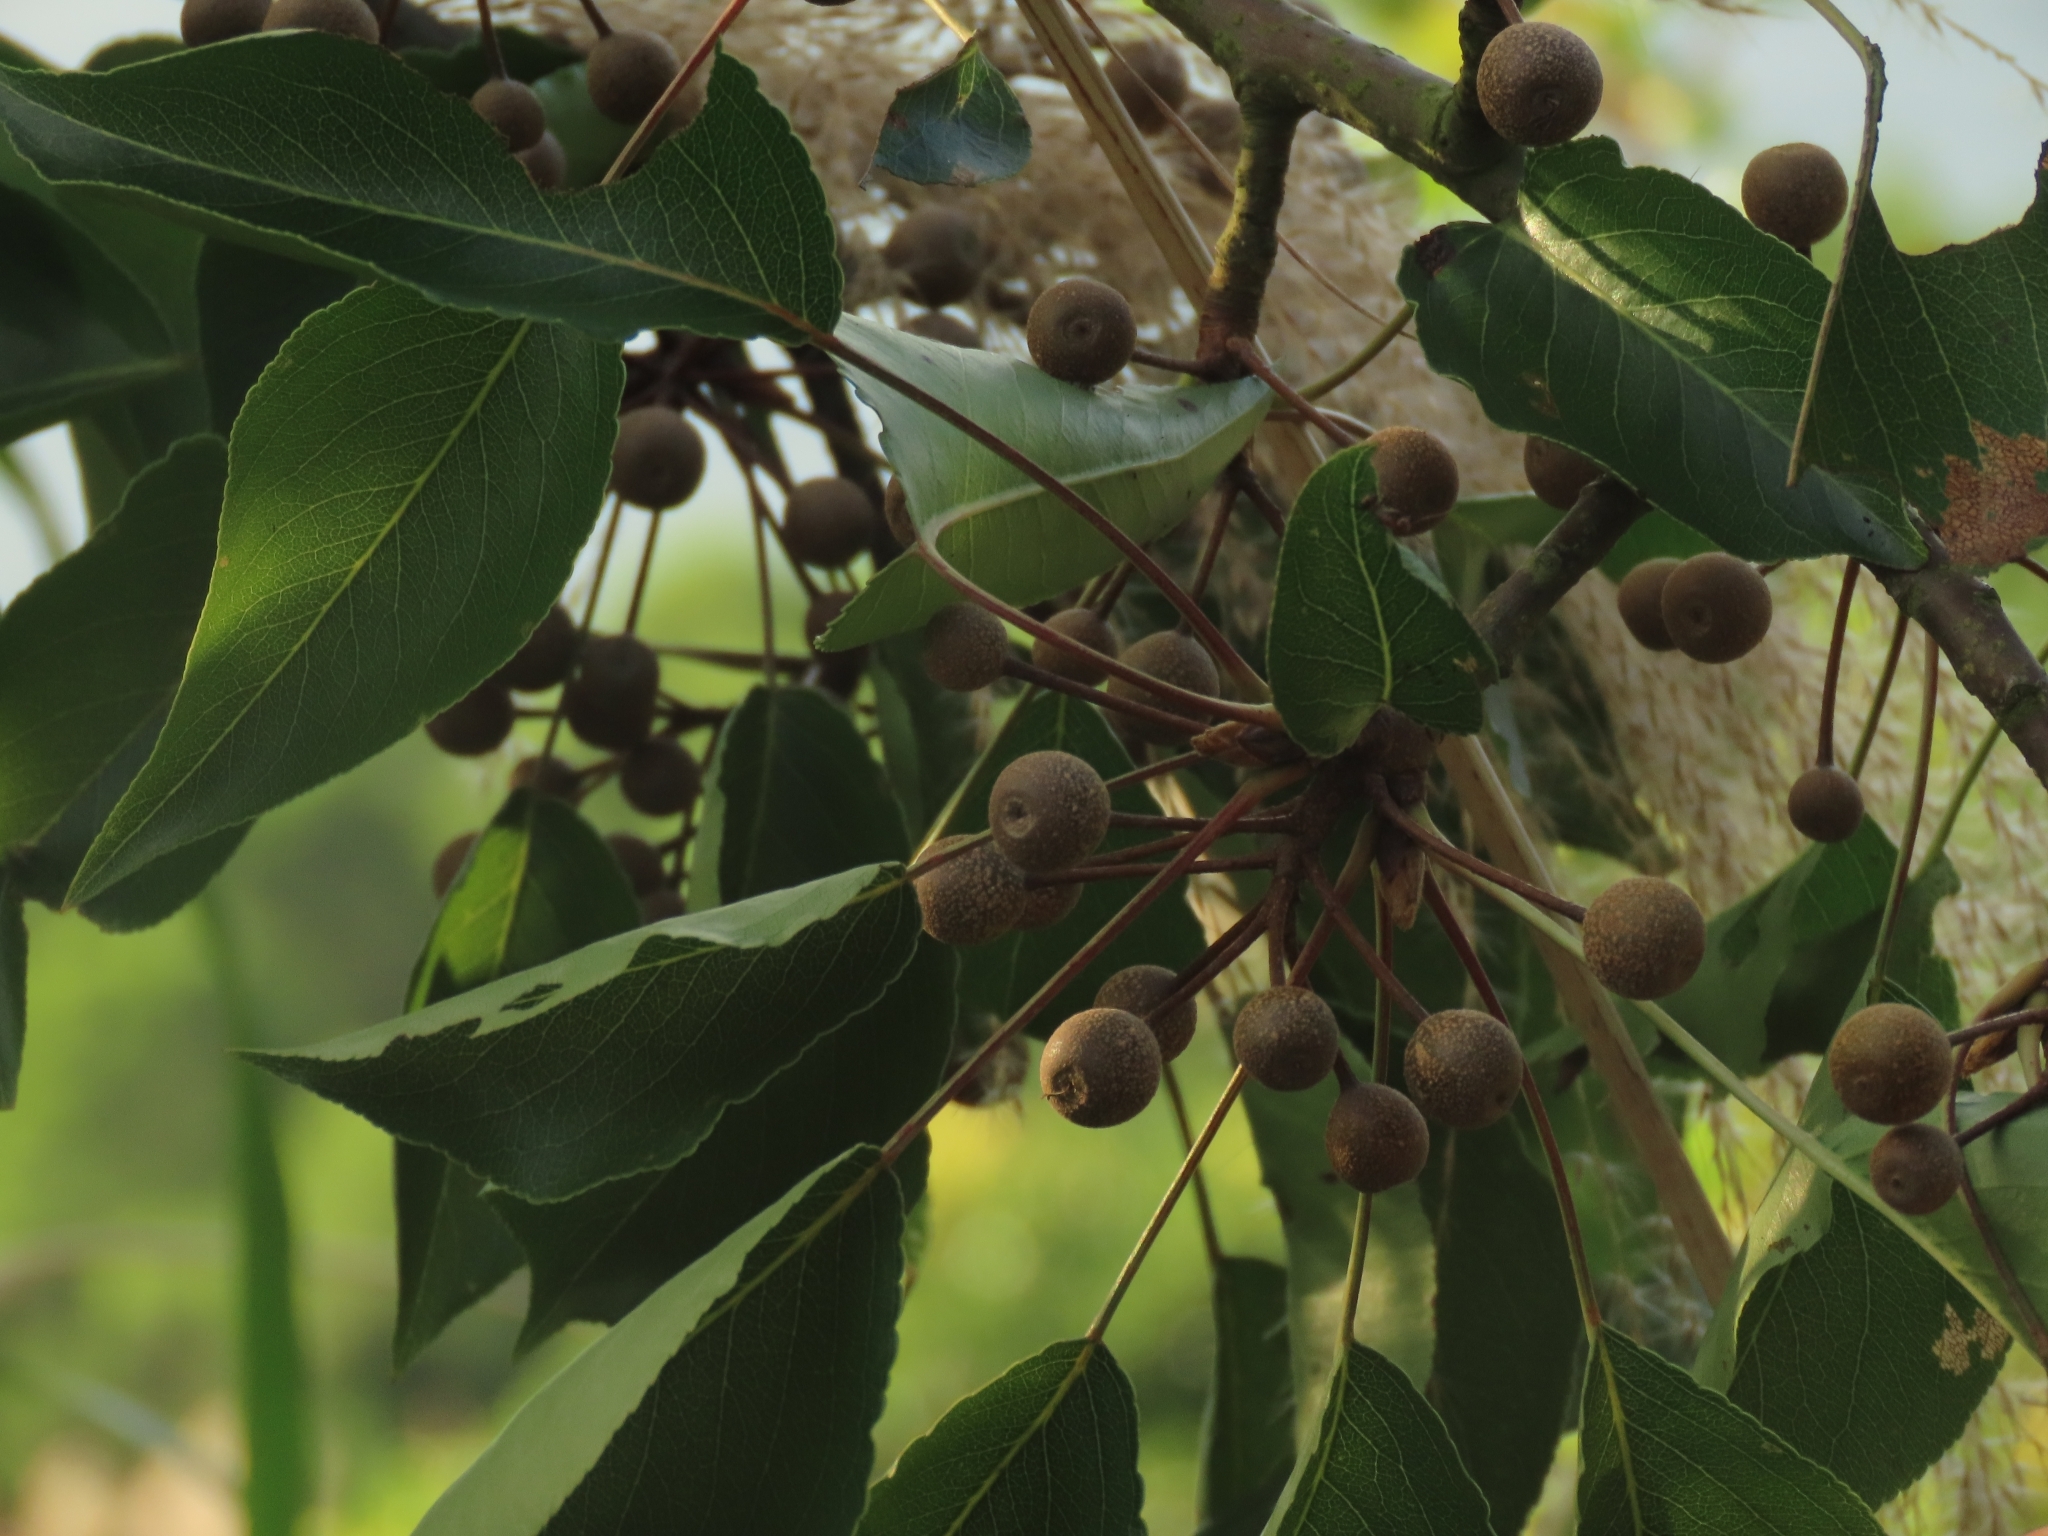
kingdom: Plantae
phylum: Tracheophyta
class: Magnoliopsida
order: Rosales
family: Rosaceae
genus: Pyrus
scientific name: Pyrus calleryana
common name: Callery pear
